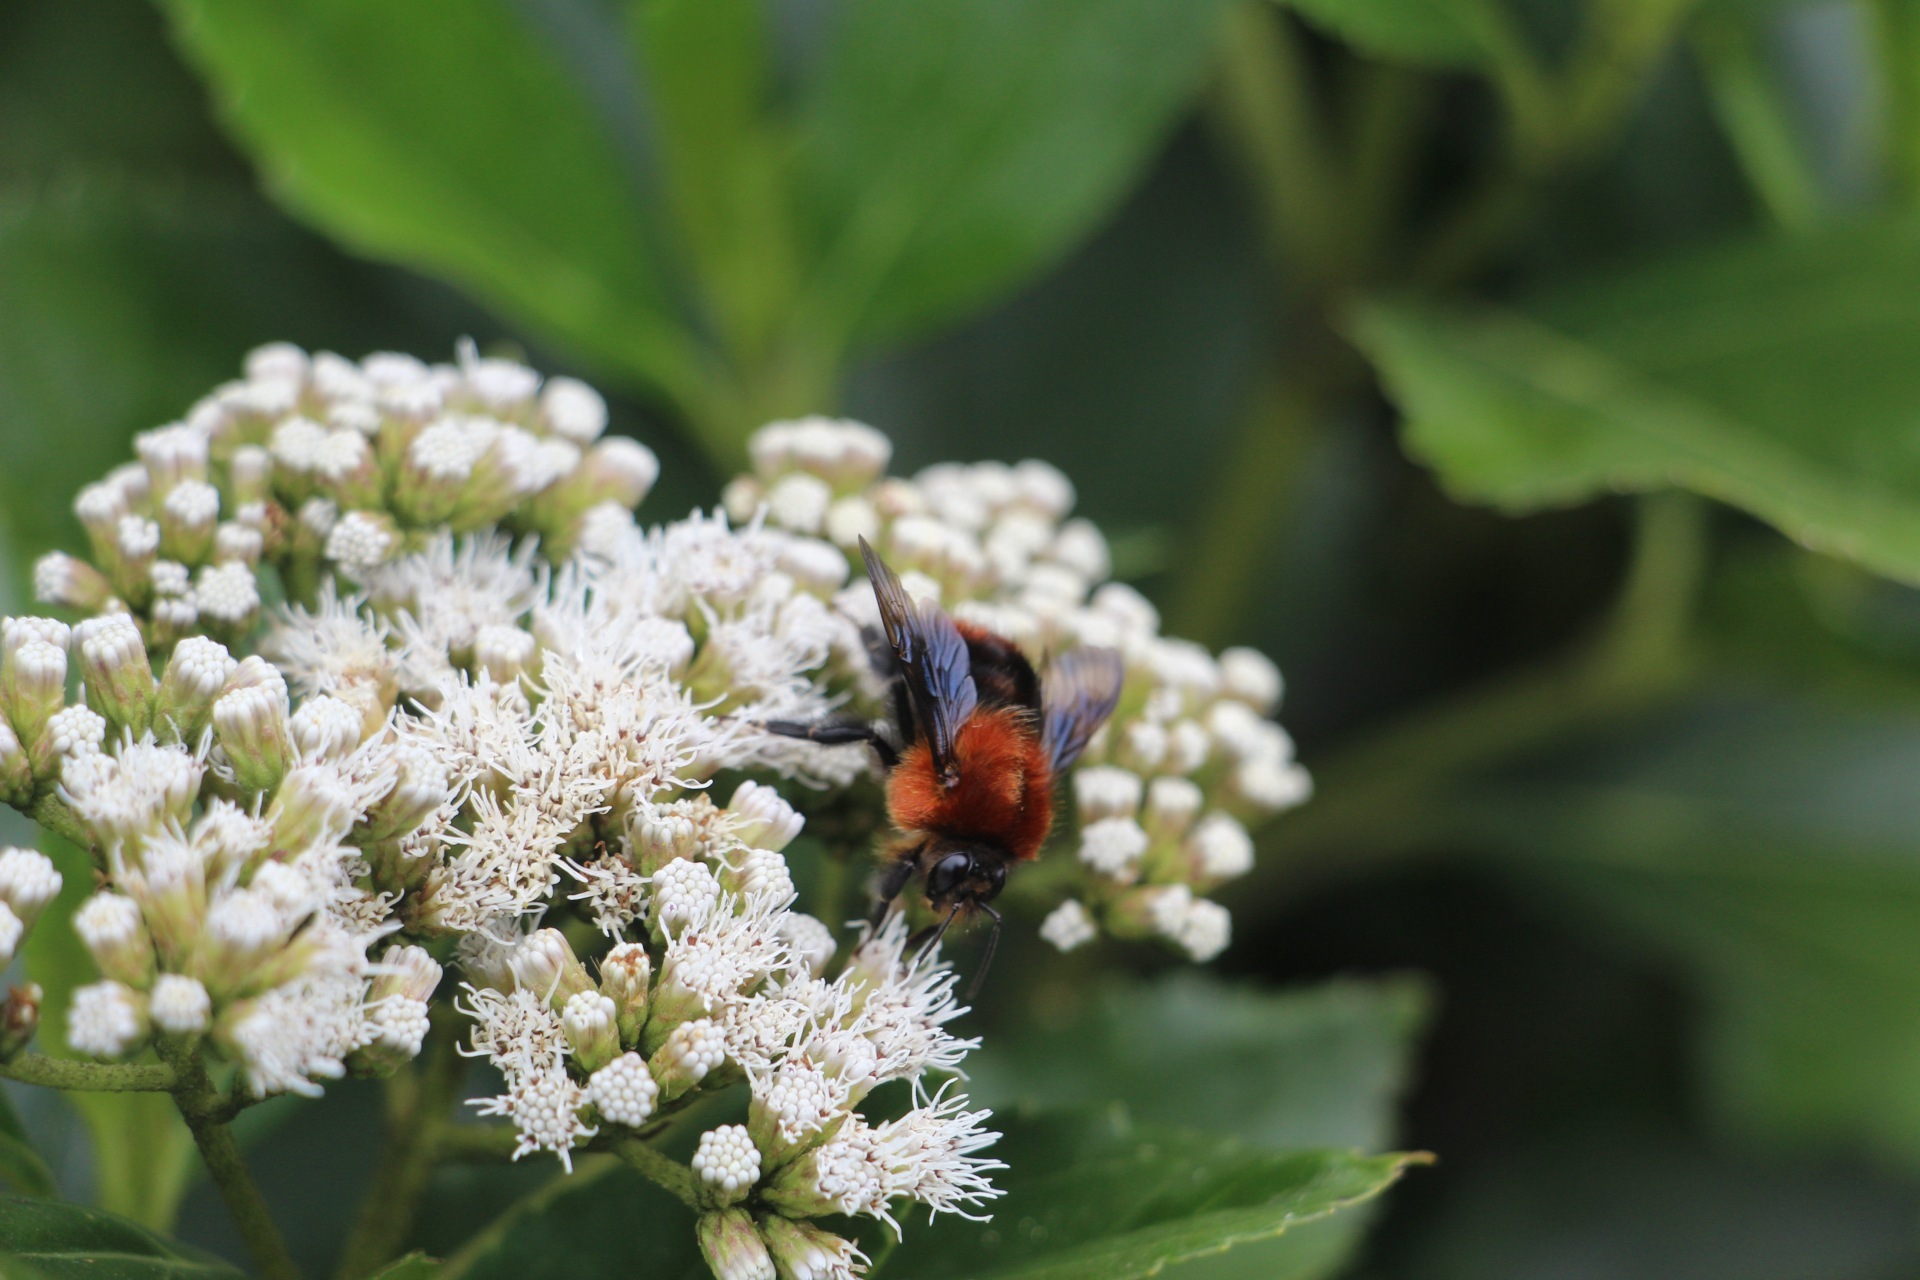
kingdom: Plantae
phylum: Tracheophyta
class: Magnoliopsida
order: Asterales
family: Asteraceae
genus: Ageratina
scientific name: Ageratina tinifolia
